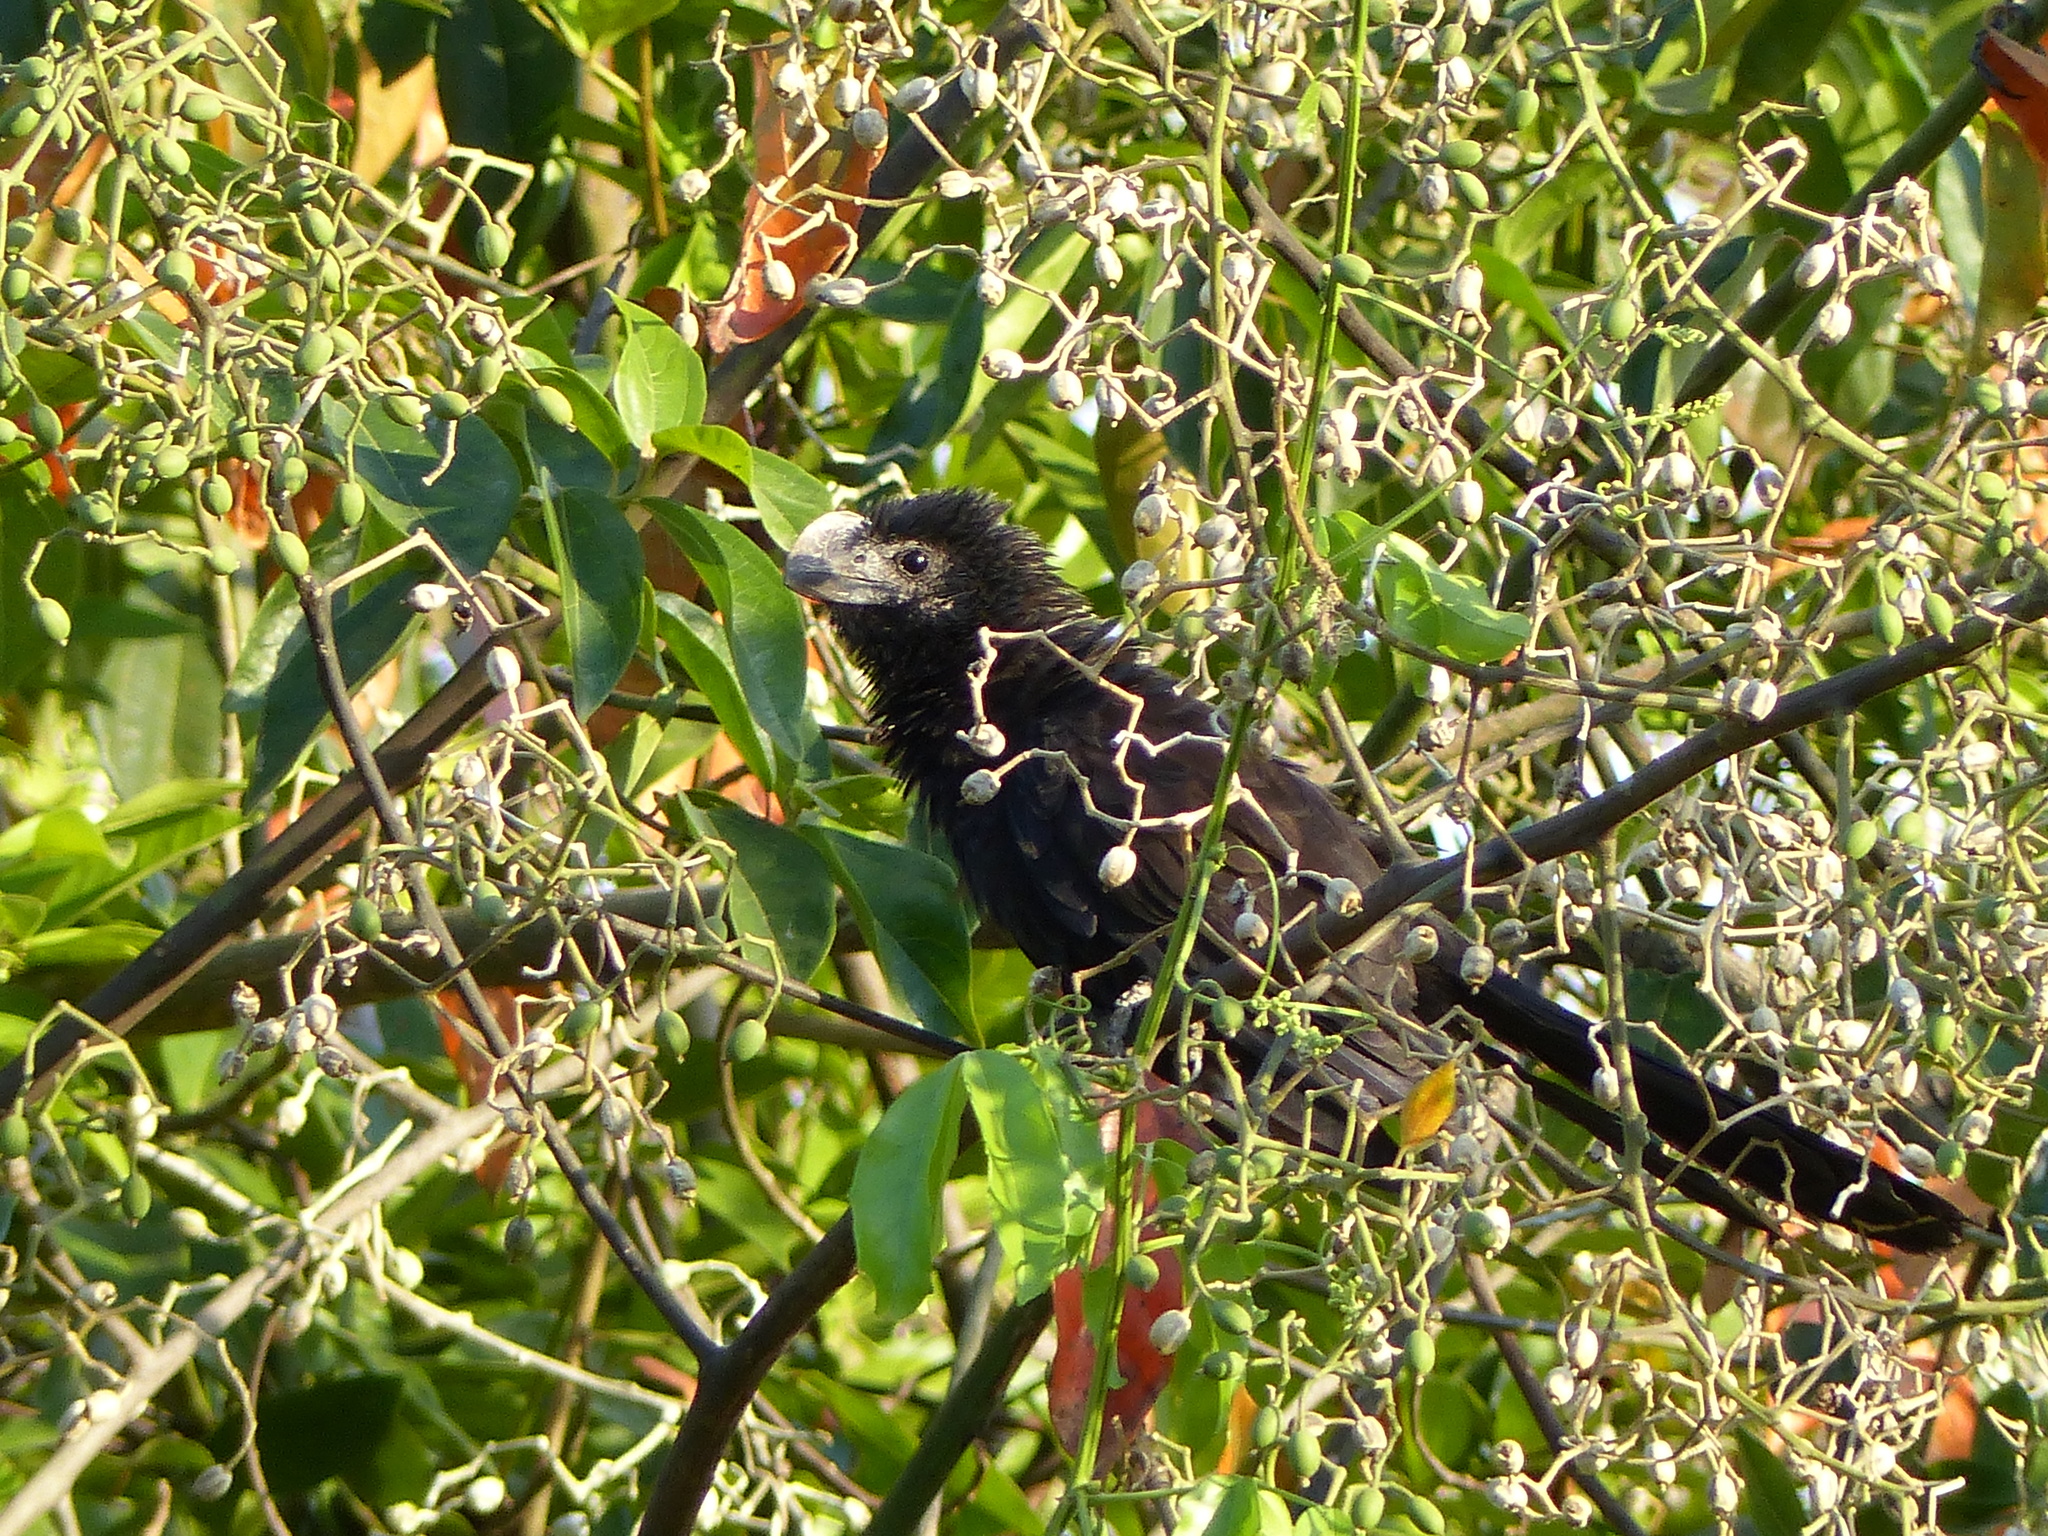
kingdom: Animalia
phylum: Chordata
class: Aves
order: Cuculiformes
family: Cuculidae
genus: Crotophaga
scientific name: Crotophaga ani
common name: Smooth-billed ani
